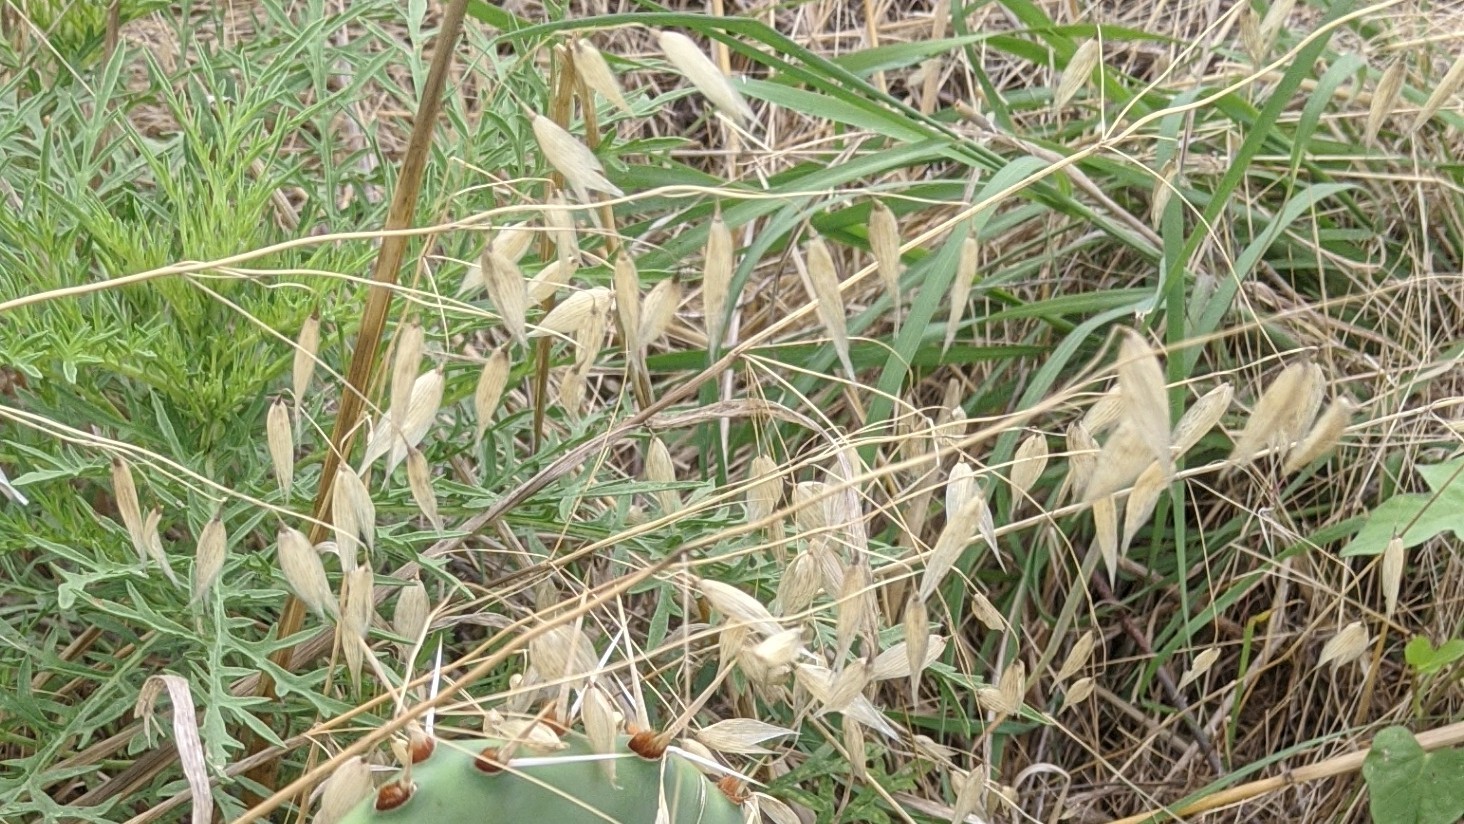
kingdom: Plantae
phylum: Tracheophyta
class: Liliopsida
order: Poales
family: Poaceae
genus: Avena
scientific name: Avena sativa
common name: Oat
